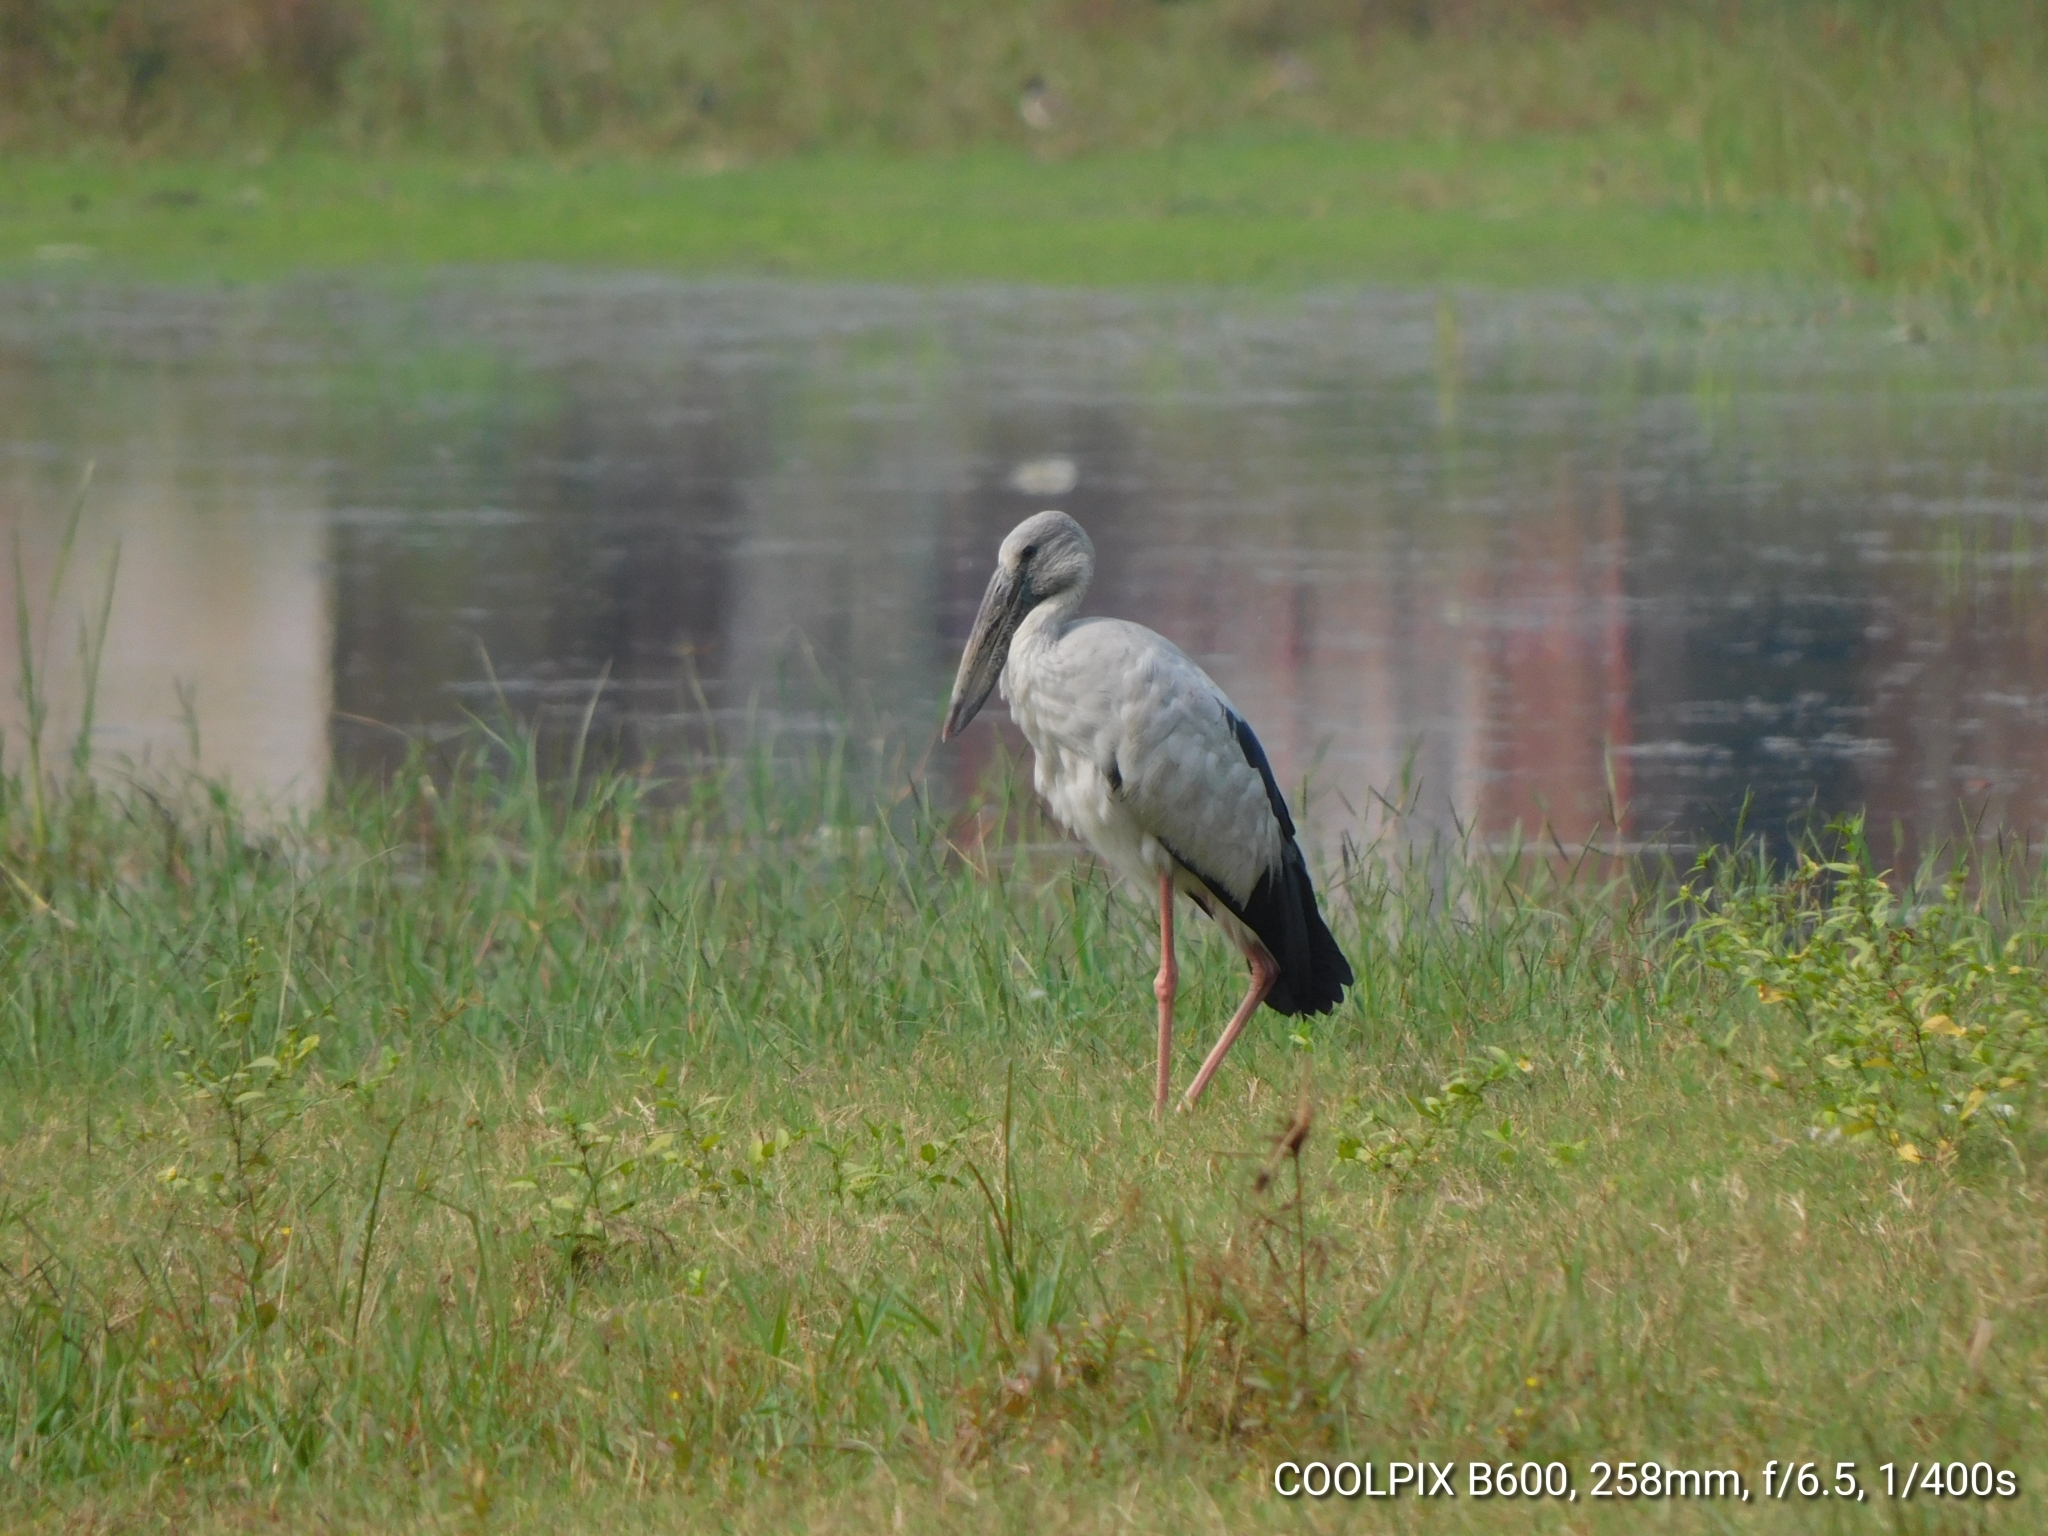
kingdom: Animalia
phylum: Chordata
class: Aves
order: Ciconiiformes
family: Ciconiidae
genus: Anastomus
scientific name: Anastomus oscitans
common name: Asian openbill
